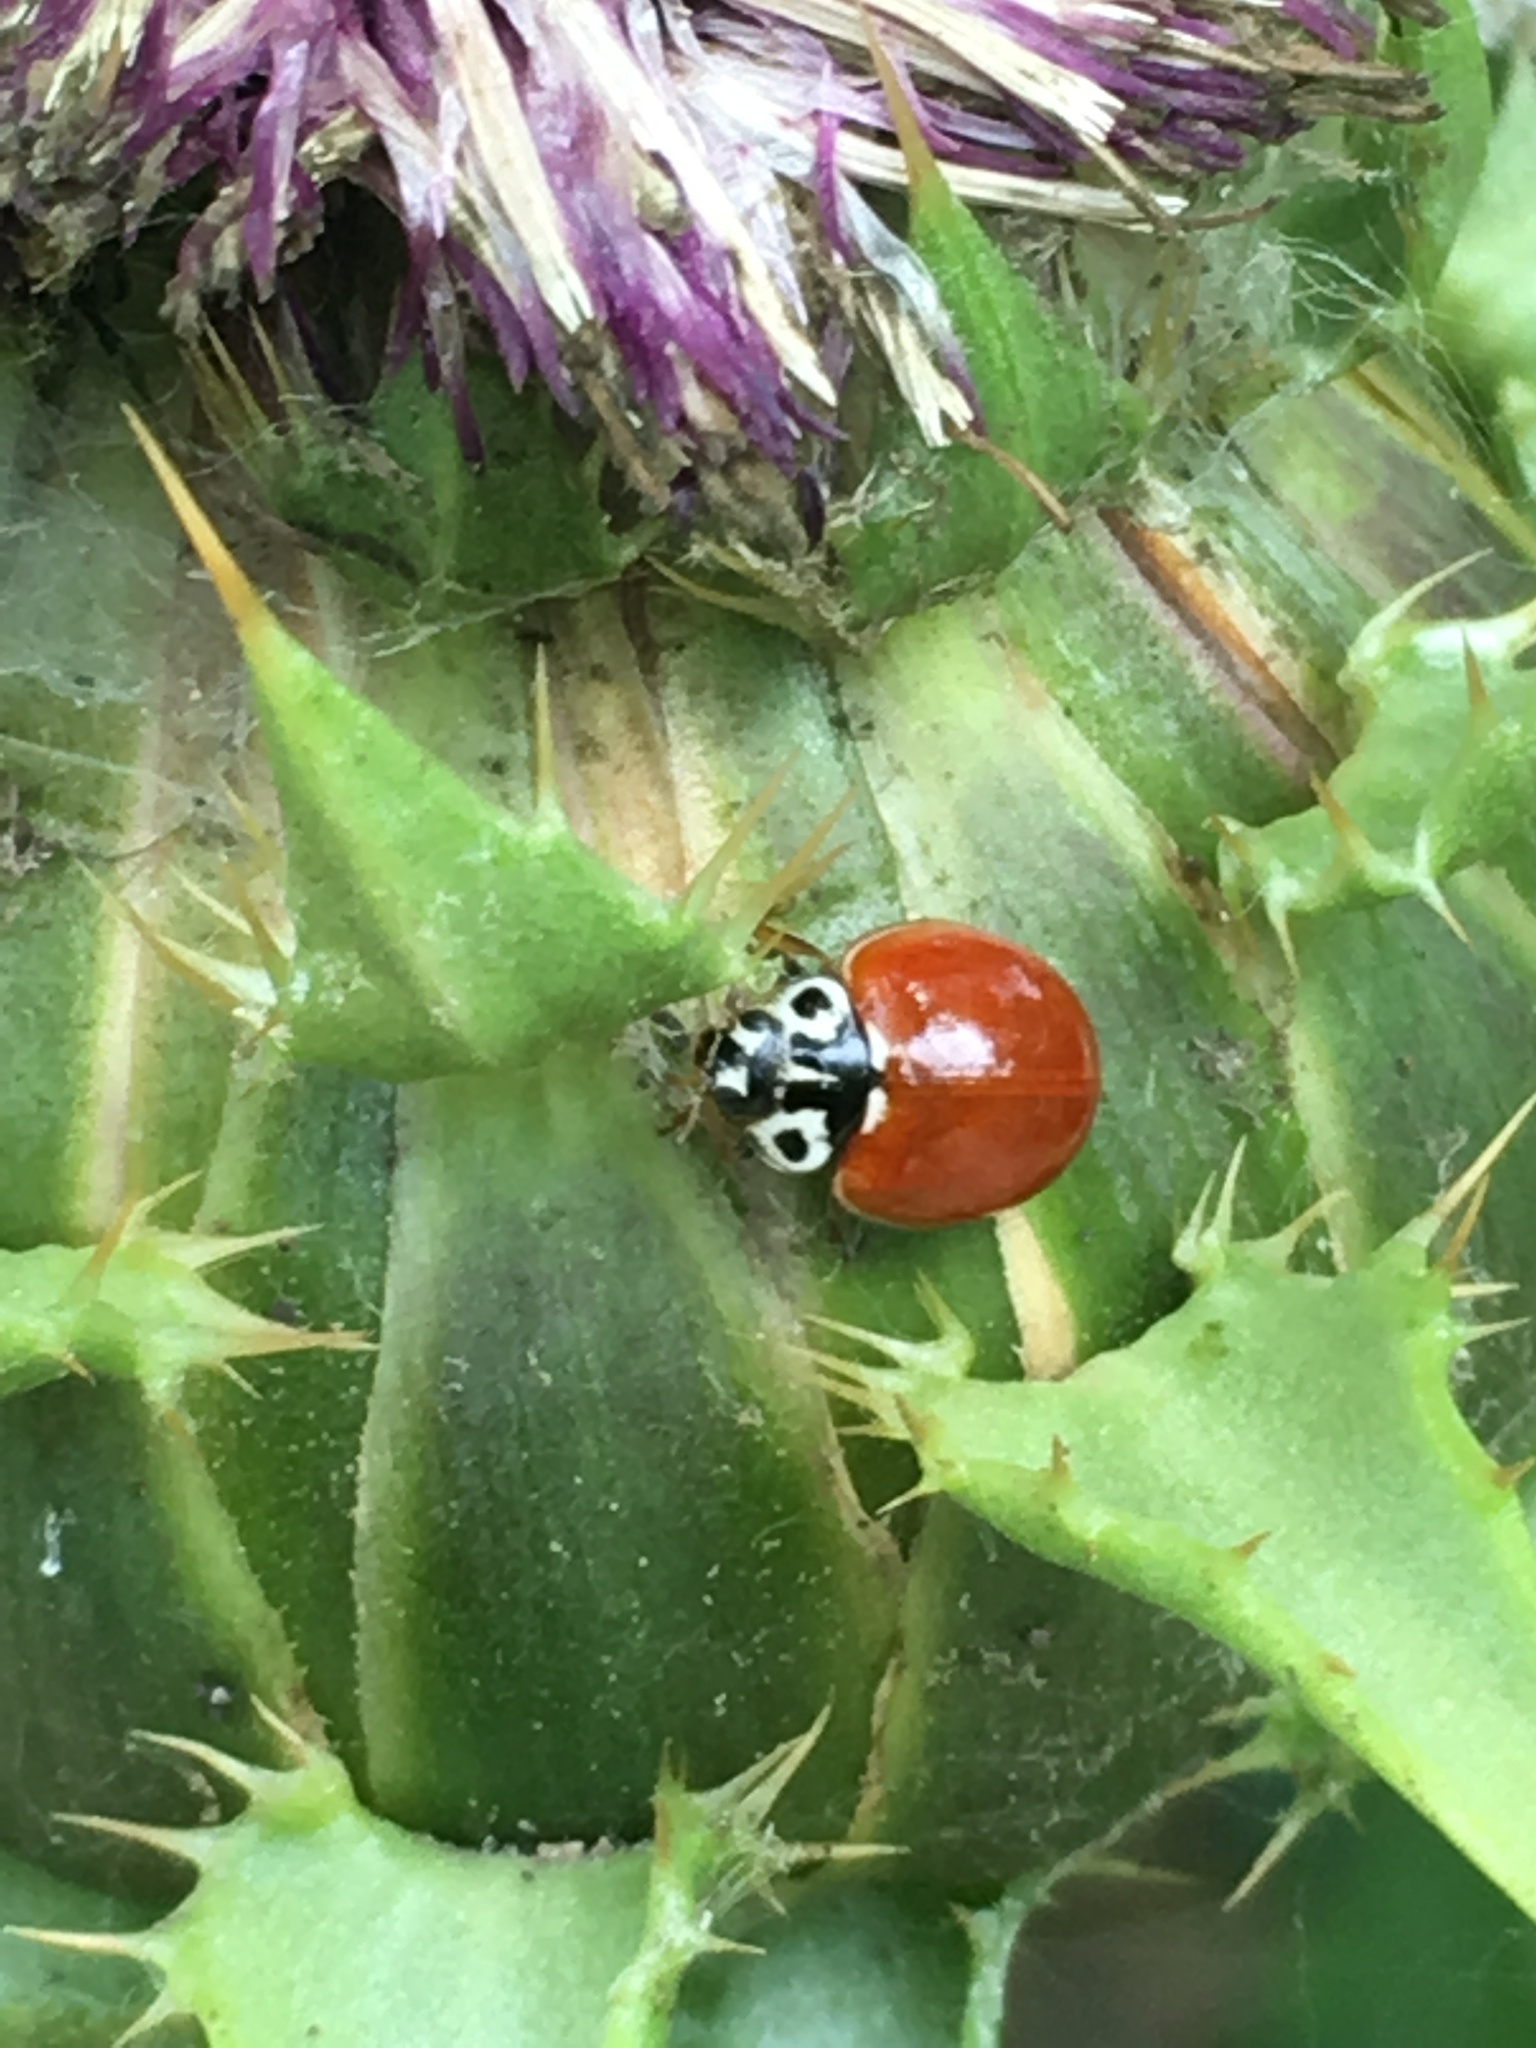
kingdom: Animalia
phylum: Arthropoda
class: Insecta
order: Coleoptera
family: Coccinellidae
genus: Cycloneda
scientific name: Cycloneda polita
